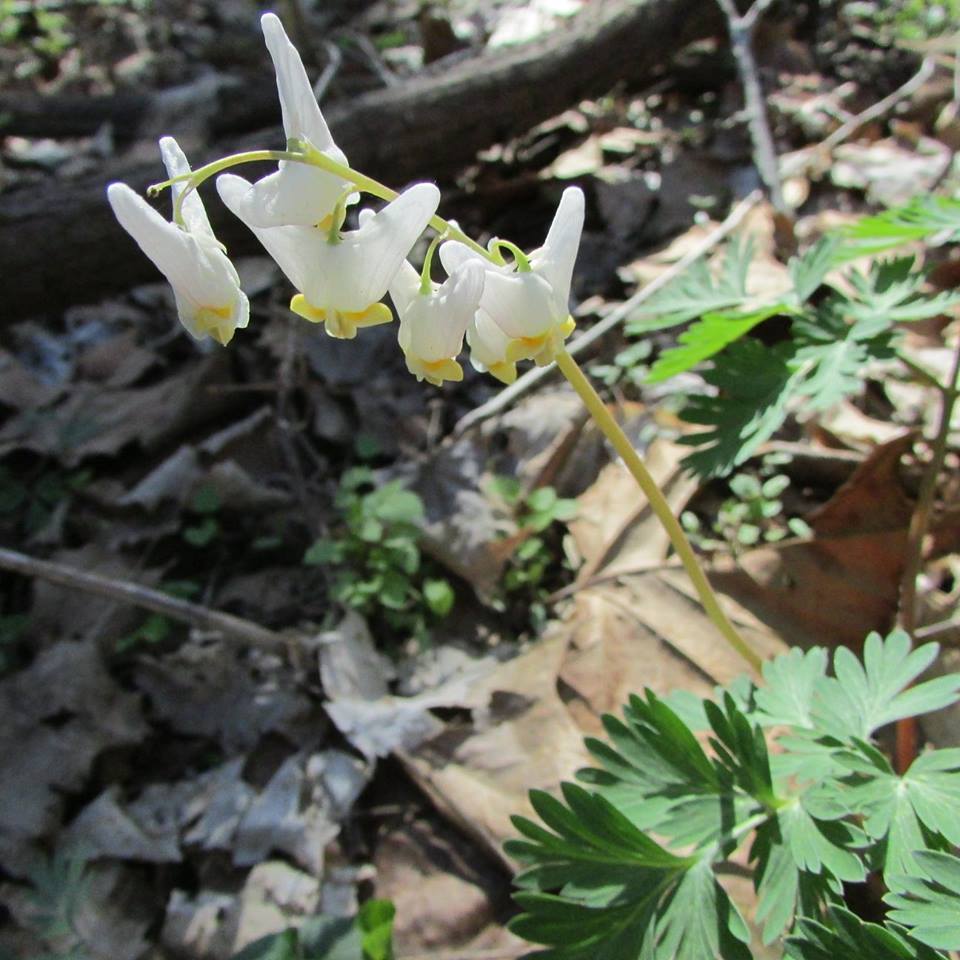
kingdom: Plantae
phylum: Tracheophyta
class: Magnoliopsida
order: Ranunculales
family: Papaveraceae
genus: Dicentra
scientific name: Dicentra cucullaria
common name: Dutchman's breeches
